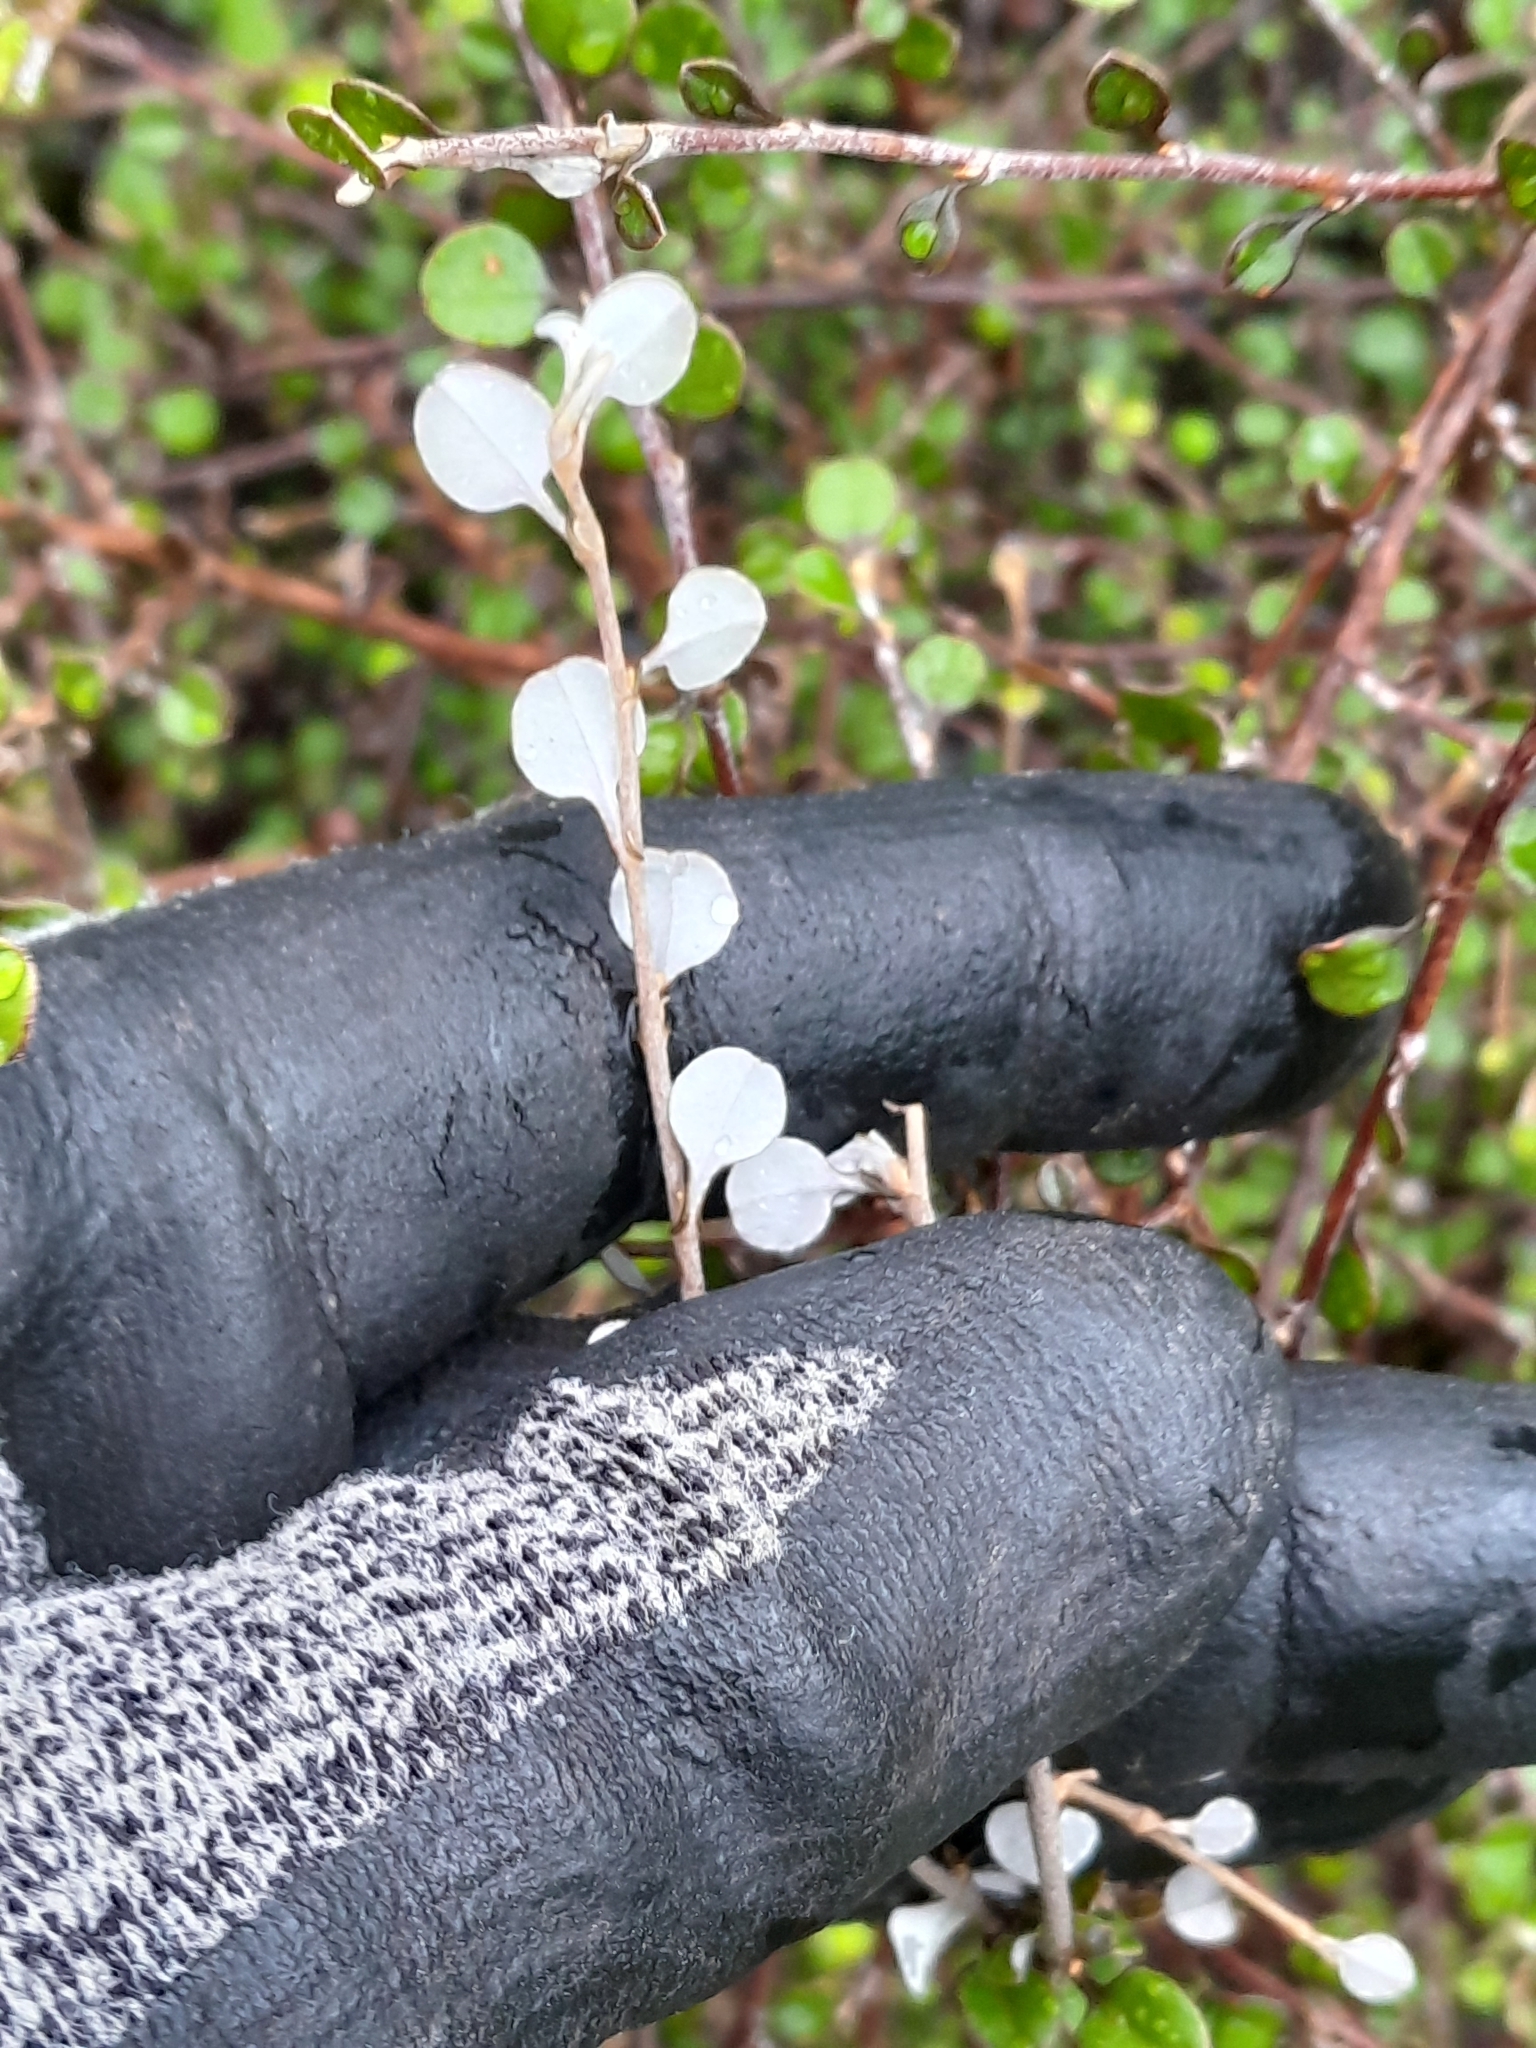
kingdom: Plantae
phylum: Tracheophyta
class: Magnoliopsida
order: Asterales
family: Asteraceae
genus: Ozothamnus
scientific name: Ozothamnus glomeratus
